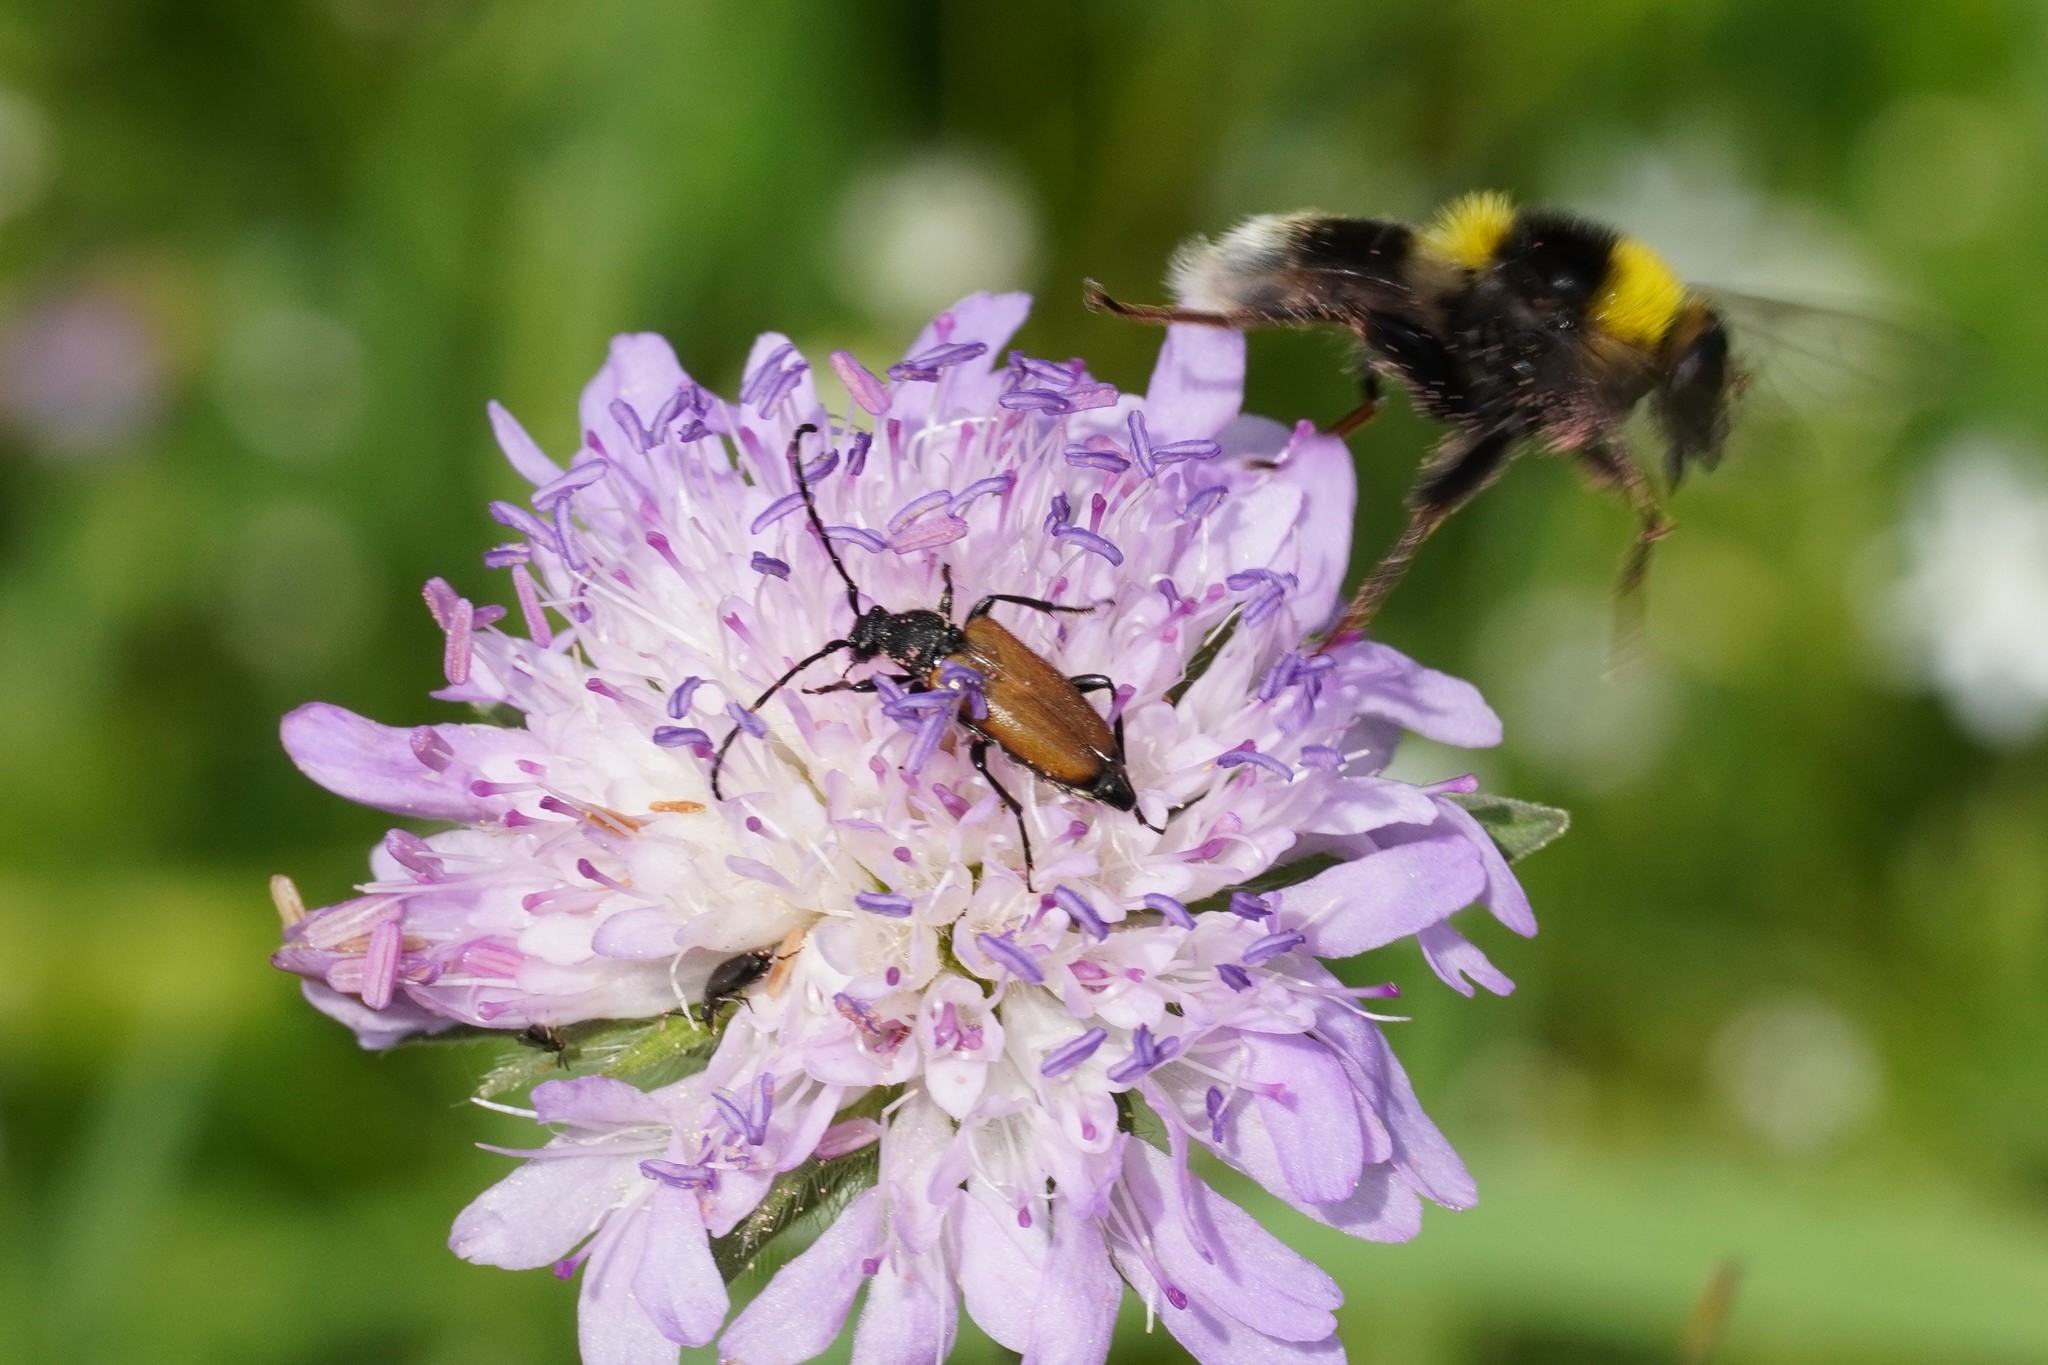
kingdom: Animalia
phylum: Arthropoda
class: Insecta
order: Coleoptera
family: Cerambycidae
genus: Paracorymbia
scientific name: Paracorymbia maculicornis
